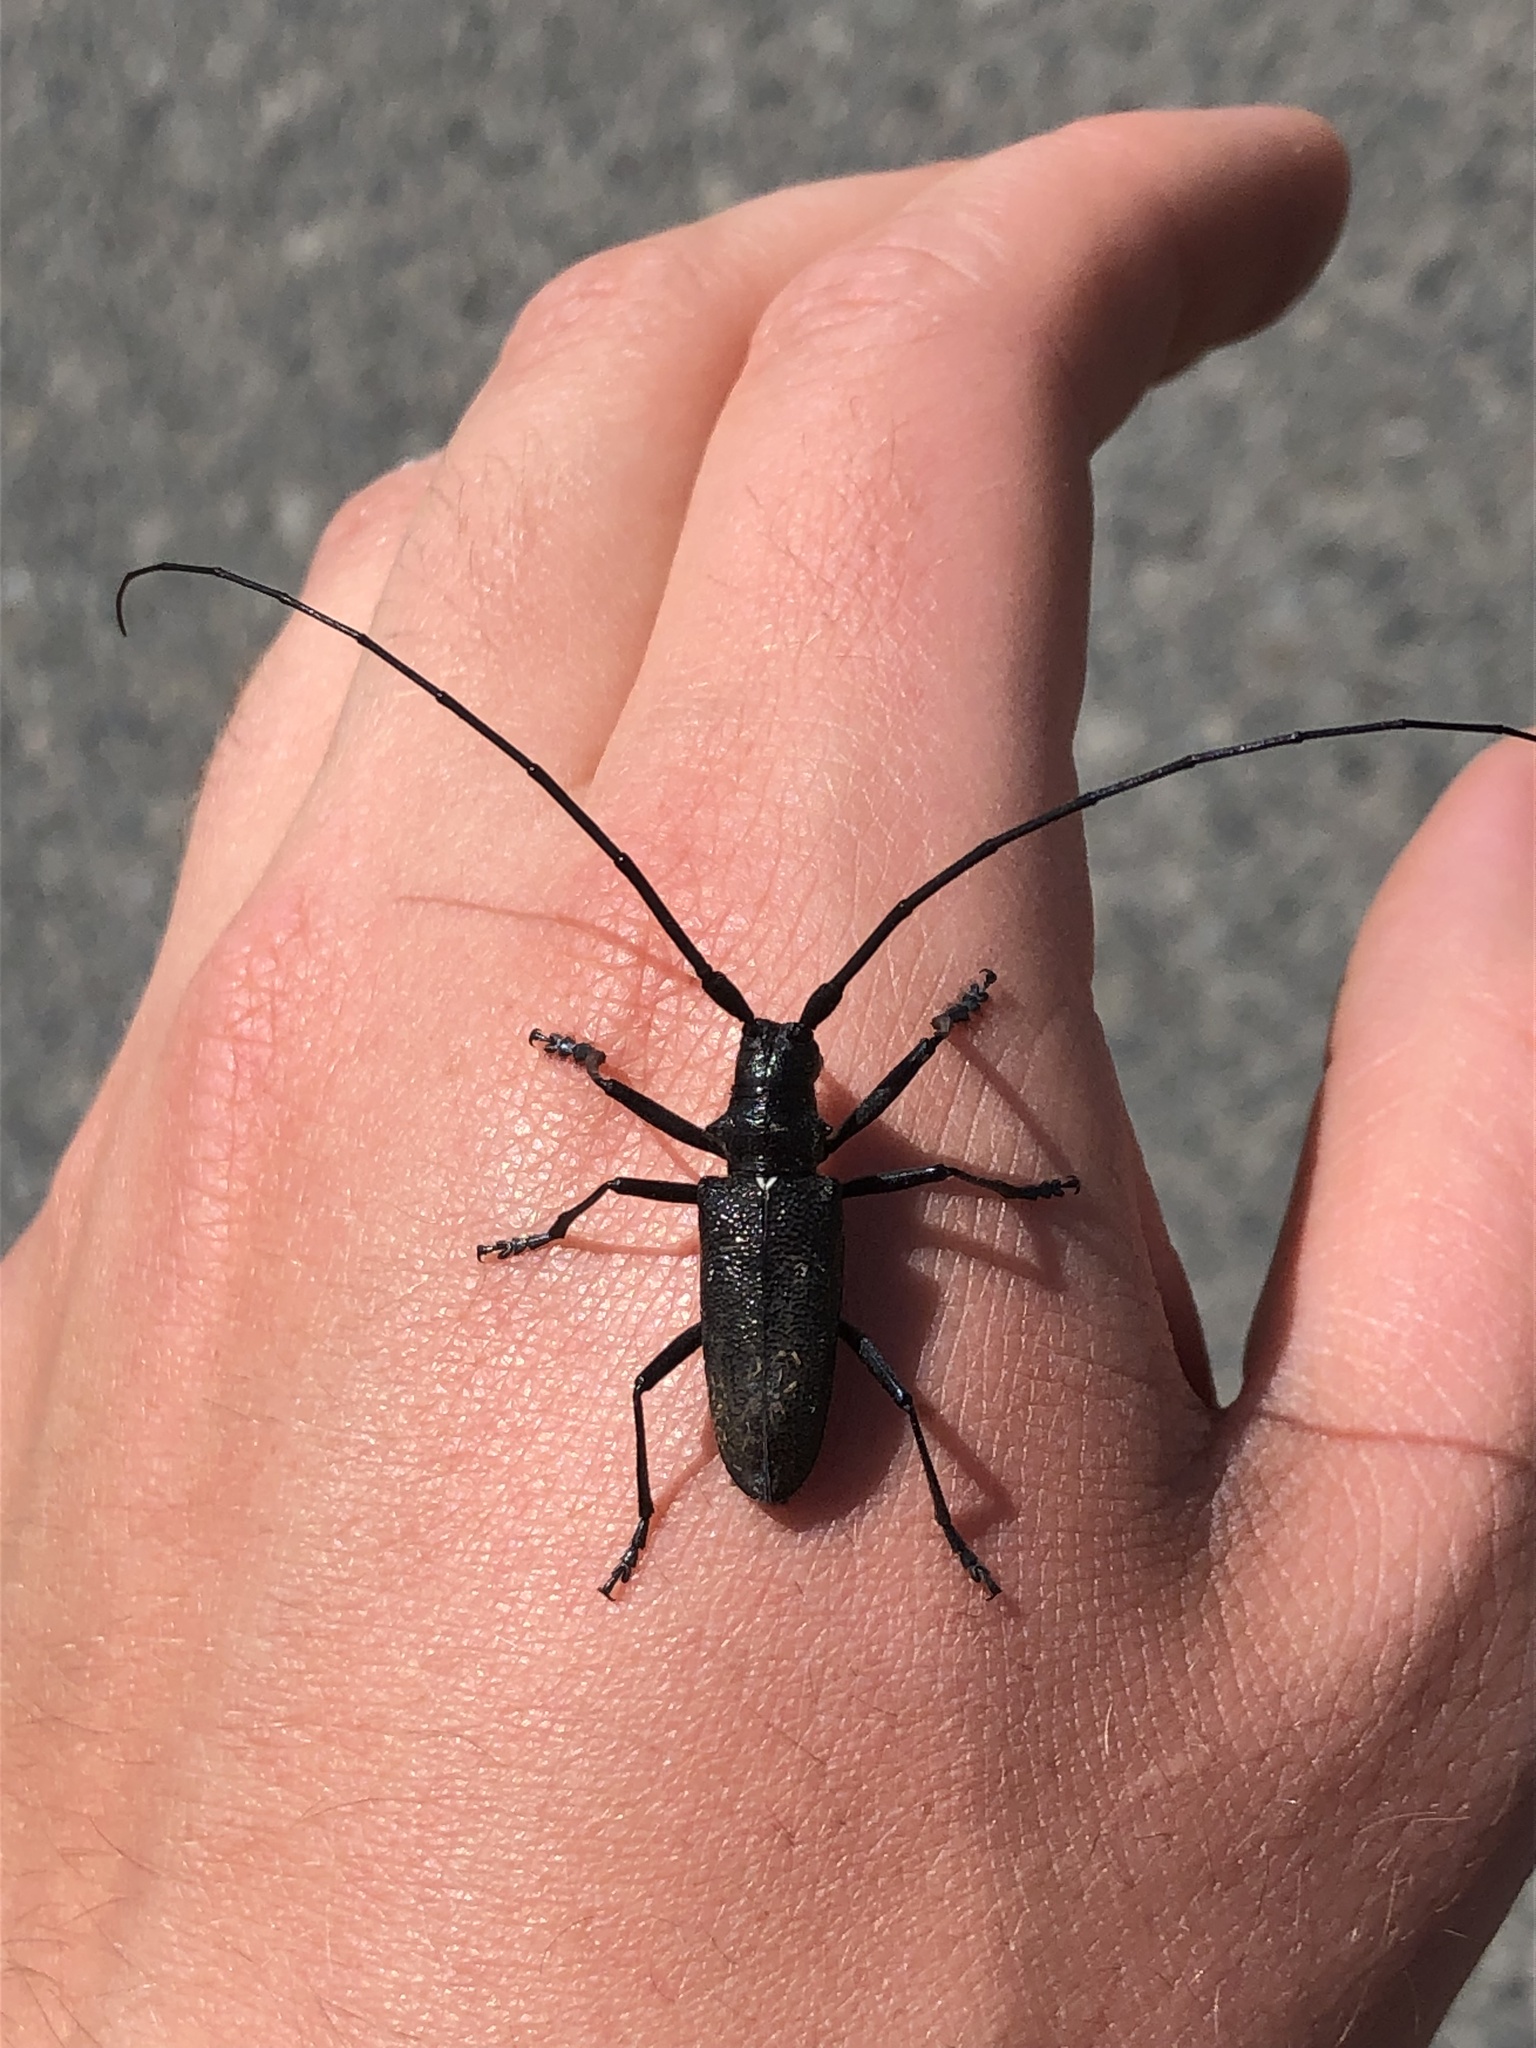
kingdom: Animalia
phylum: Arthropoda
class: Insecta
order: Coleoptera
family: Cerambycidae
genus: Monochamus
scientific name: Monochamus scutellatus
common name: White-spotted sawyer beetle
